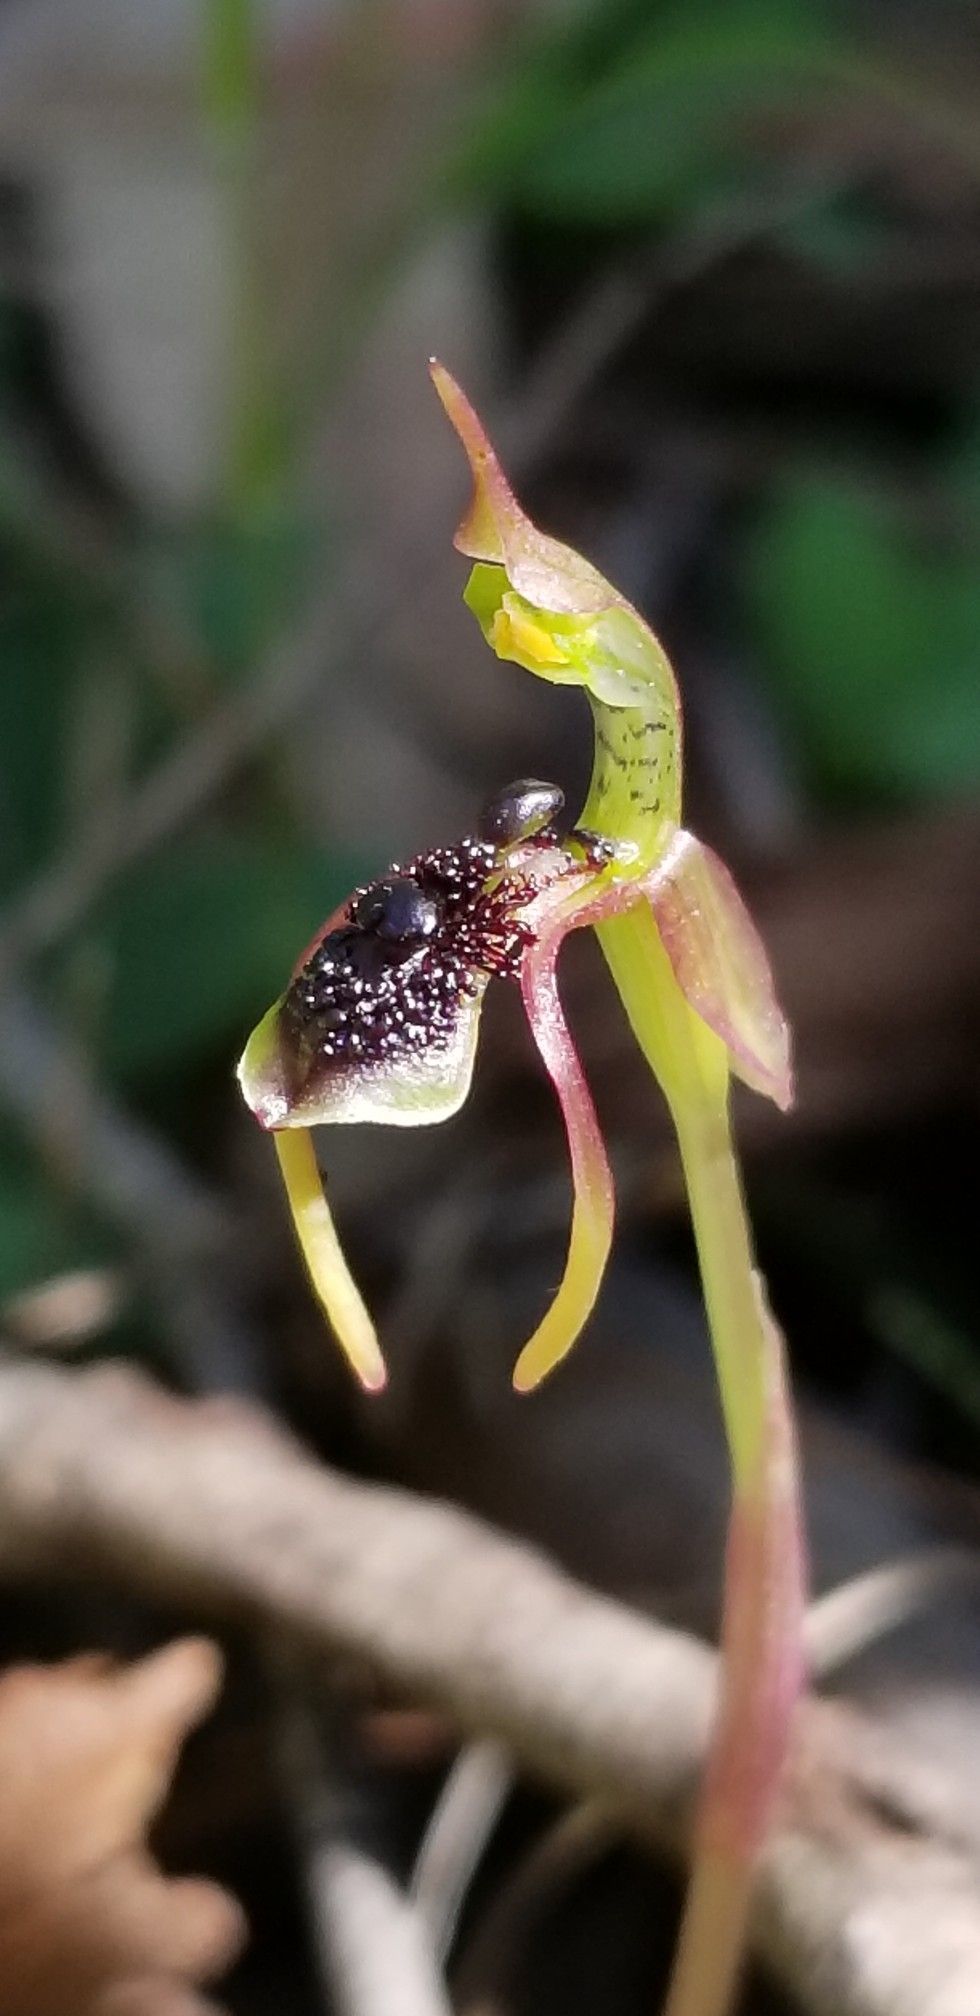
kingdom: Plantae
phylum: Tracheophyta
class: Liliopsida
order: Asparagales
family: Orchidaceae
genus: Chiloglottis
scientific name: Chiloglottis diphylla
